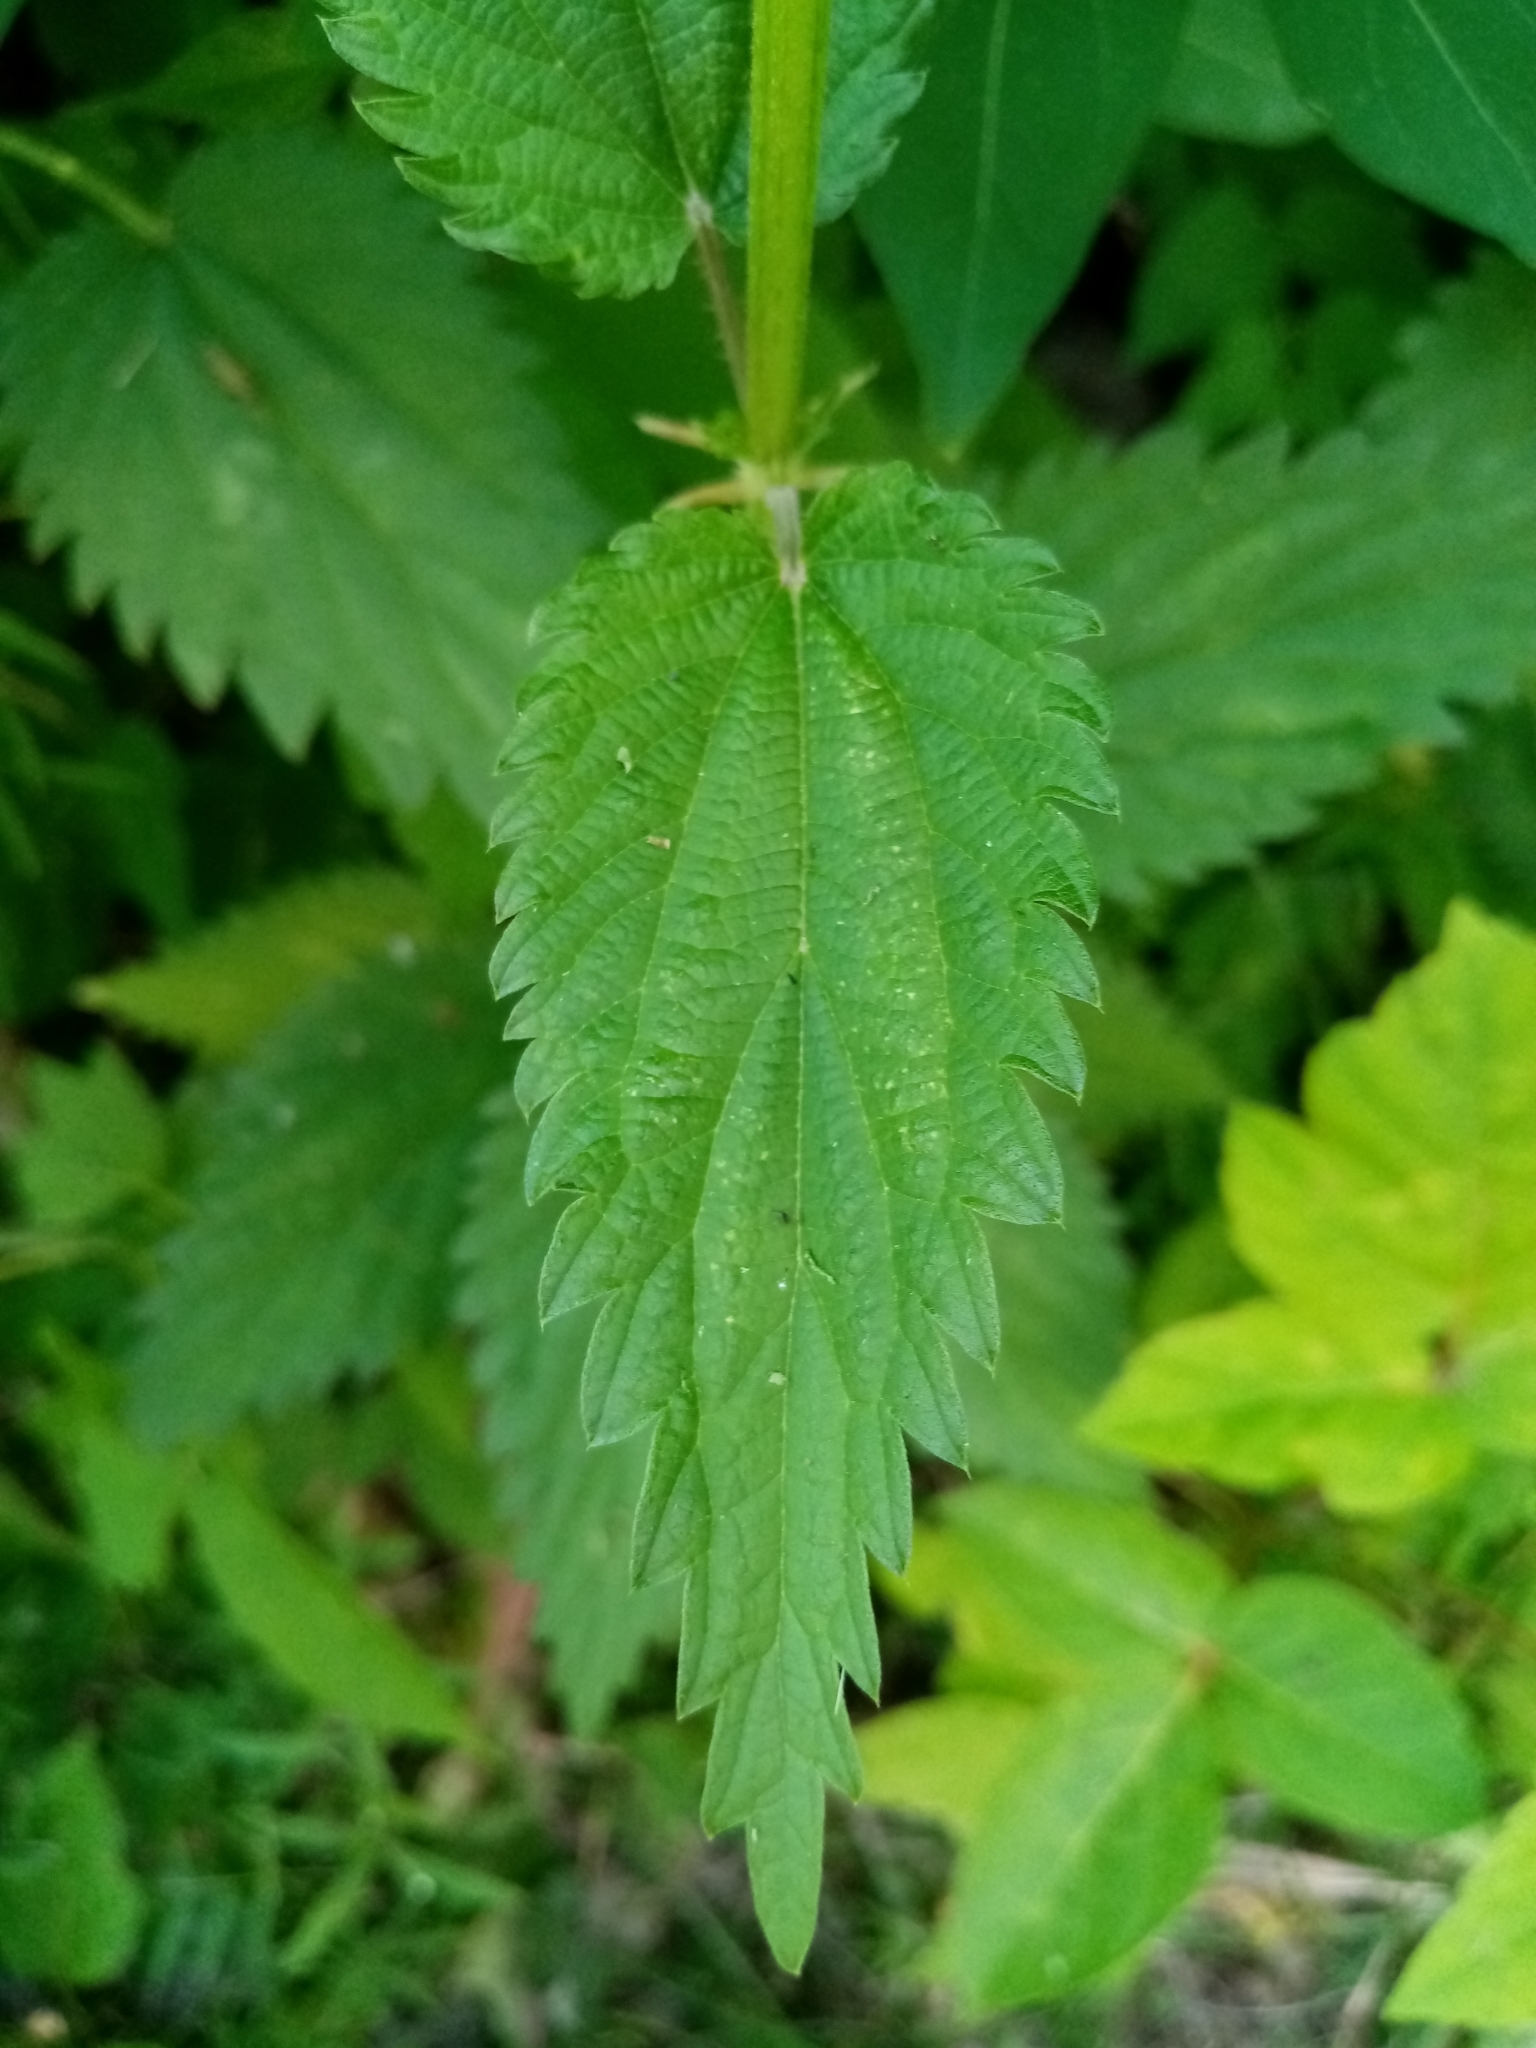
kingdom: Plantae
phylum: Tracheophyta
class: Magnoliopsida
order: Rosales
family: Urticaceae
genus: Urtica
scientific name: Urtica dioica
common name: Common nettle
